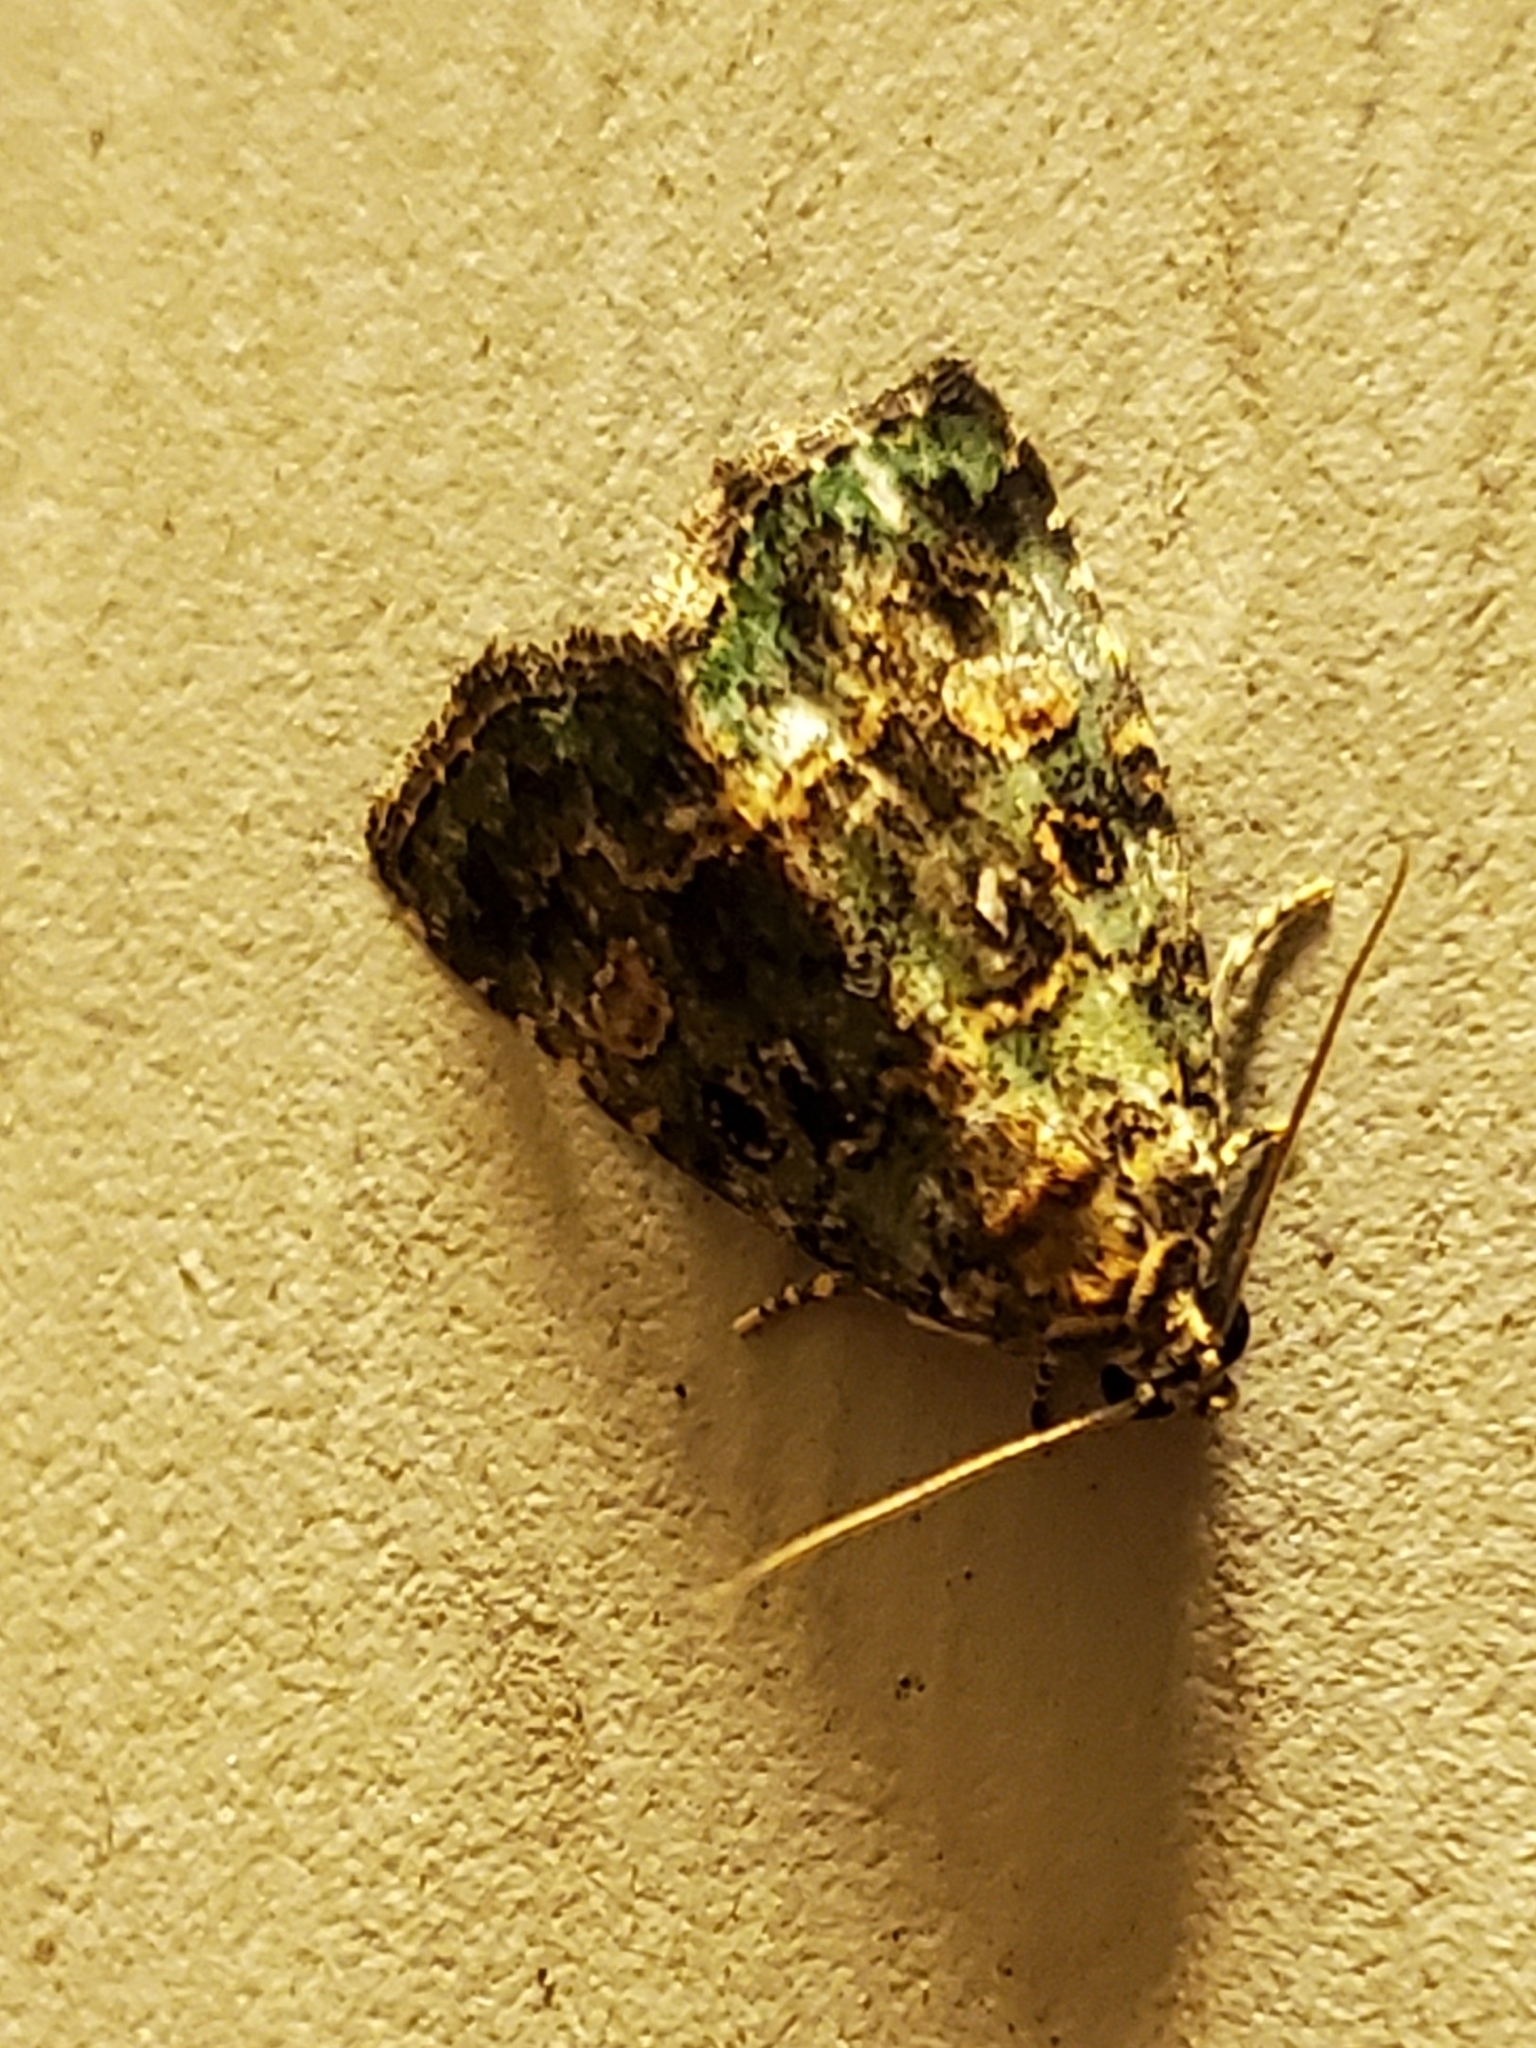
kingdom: Animalia
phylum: Arthropoda
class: Insecta
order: Lepidoptera
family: Noctuidae
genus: Lithacodia
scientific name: Lithacodia musta
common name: Small mossy glyph
